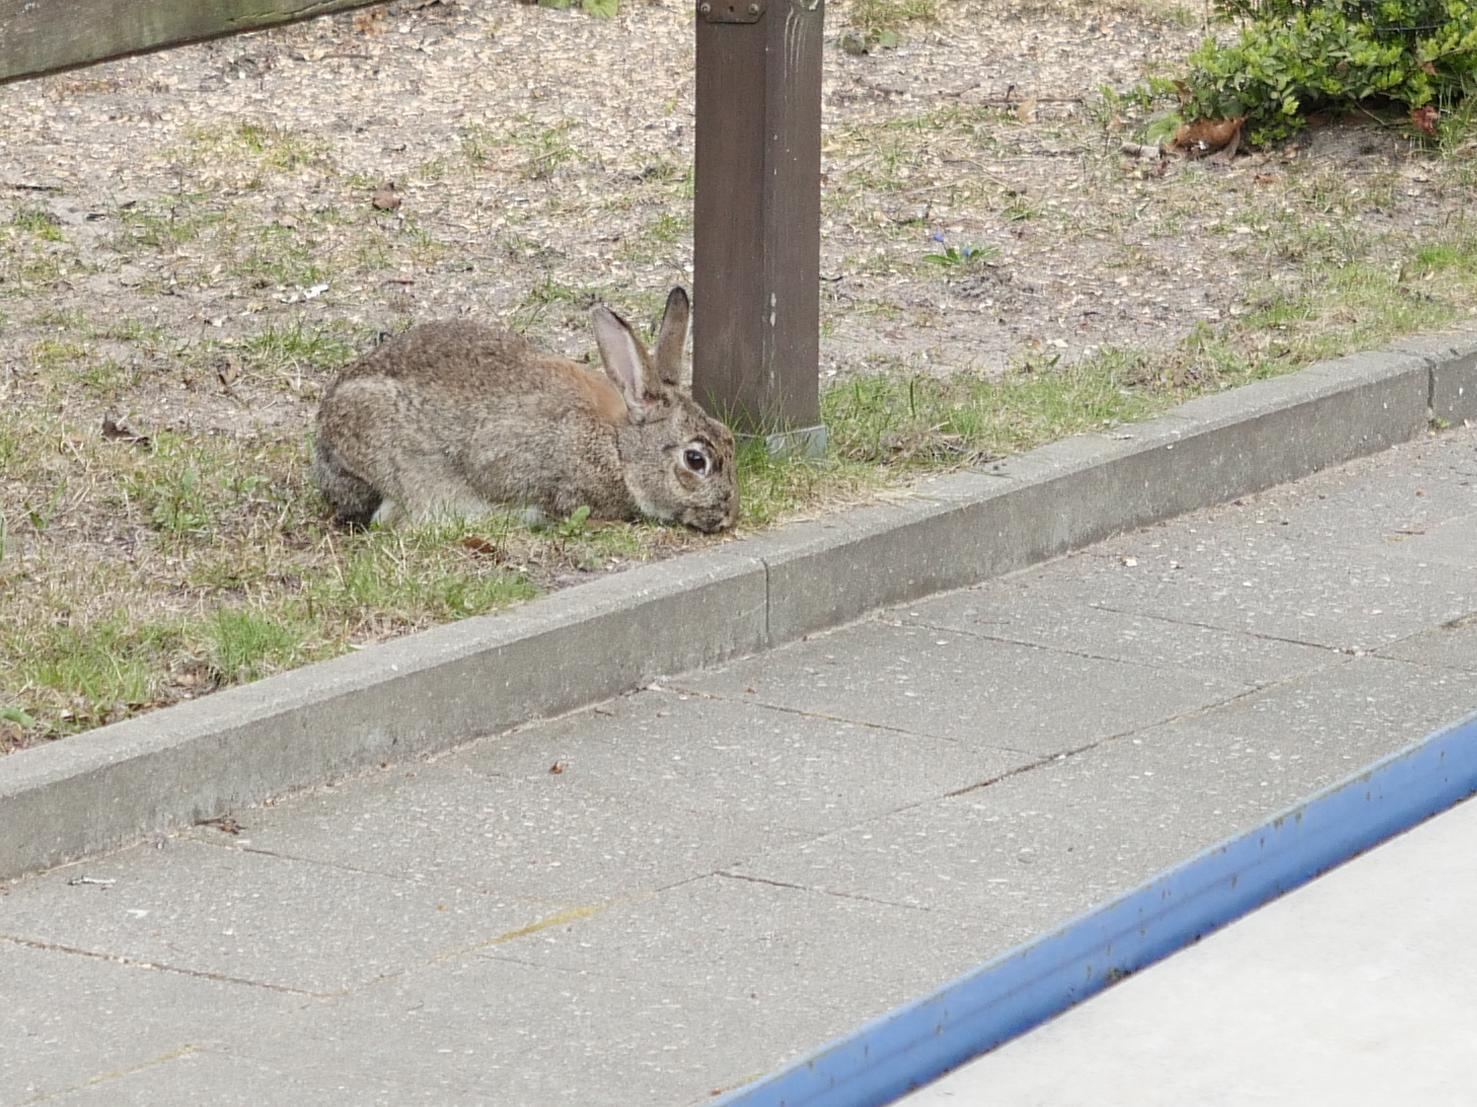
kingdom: Animalia
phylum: Chordata
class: Mammalia
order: Lagomorpha
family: Leporidae
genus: Oryctolagus
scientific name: Oryctolagus cuniculus
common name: European rabbit
